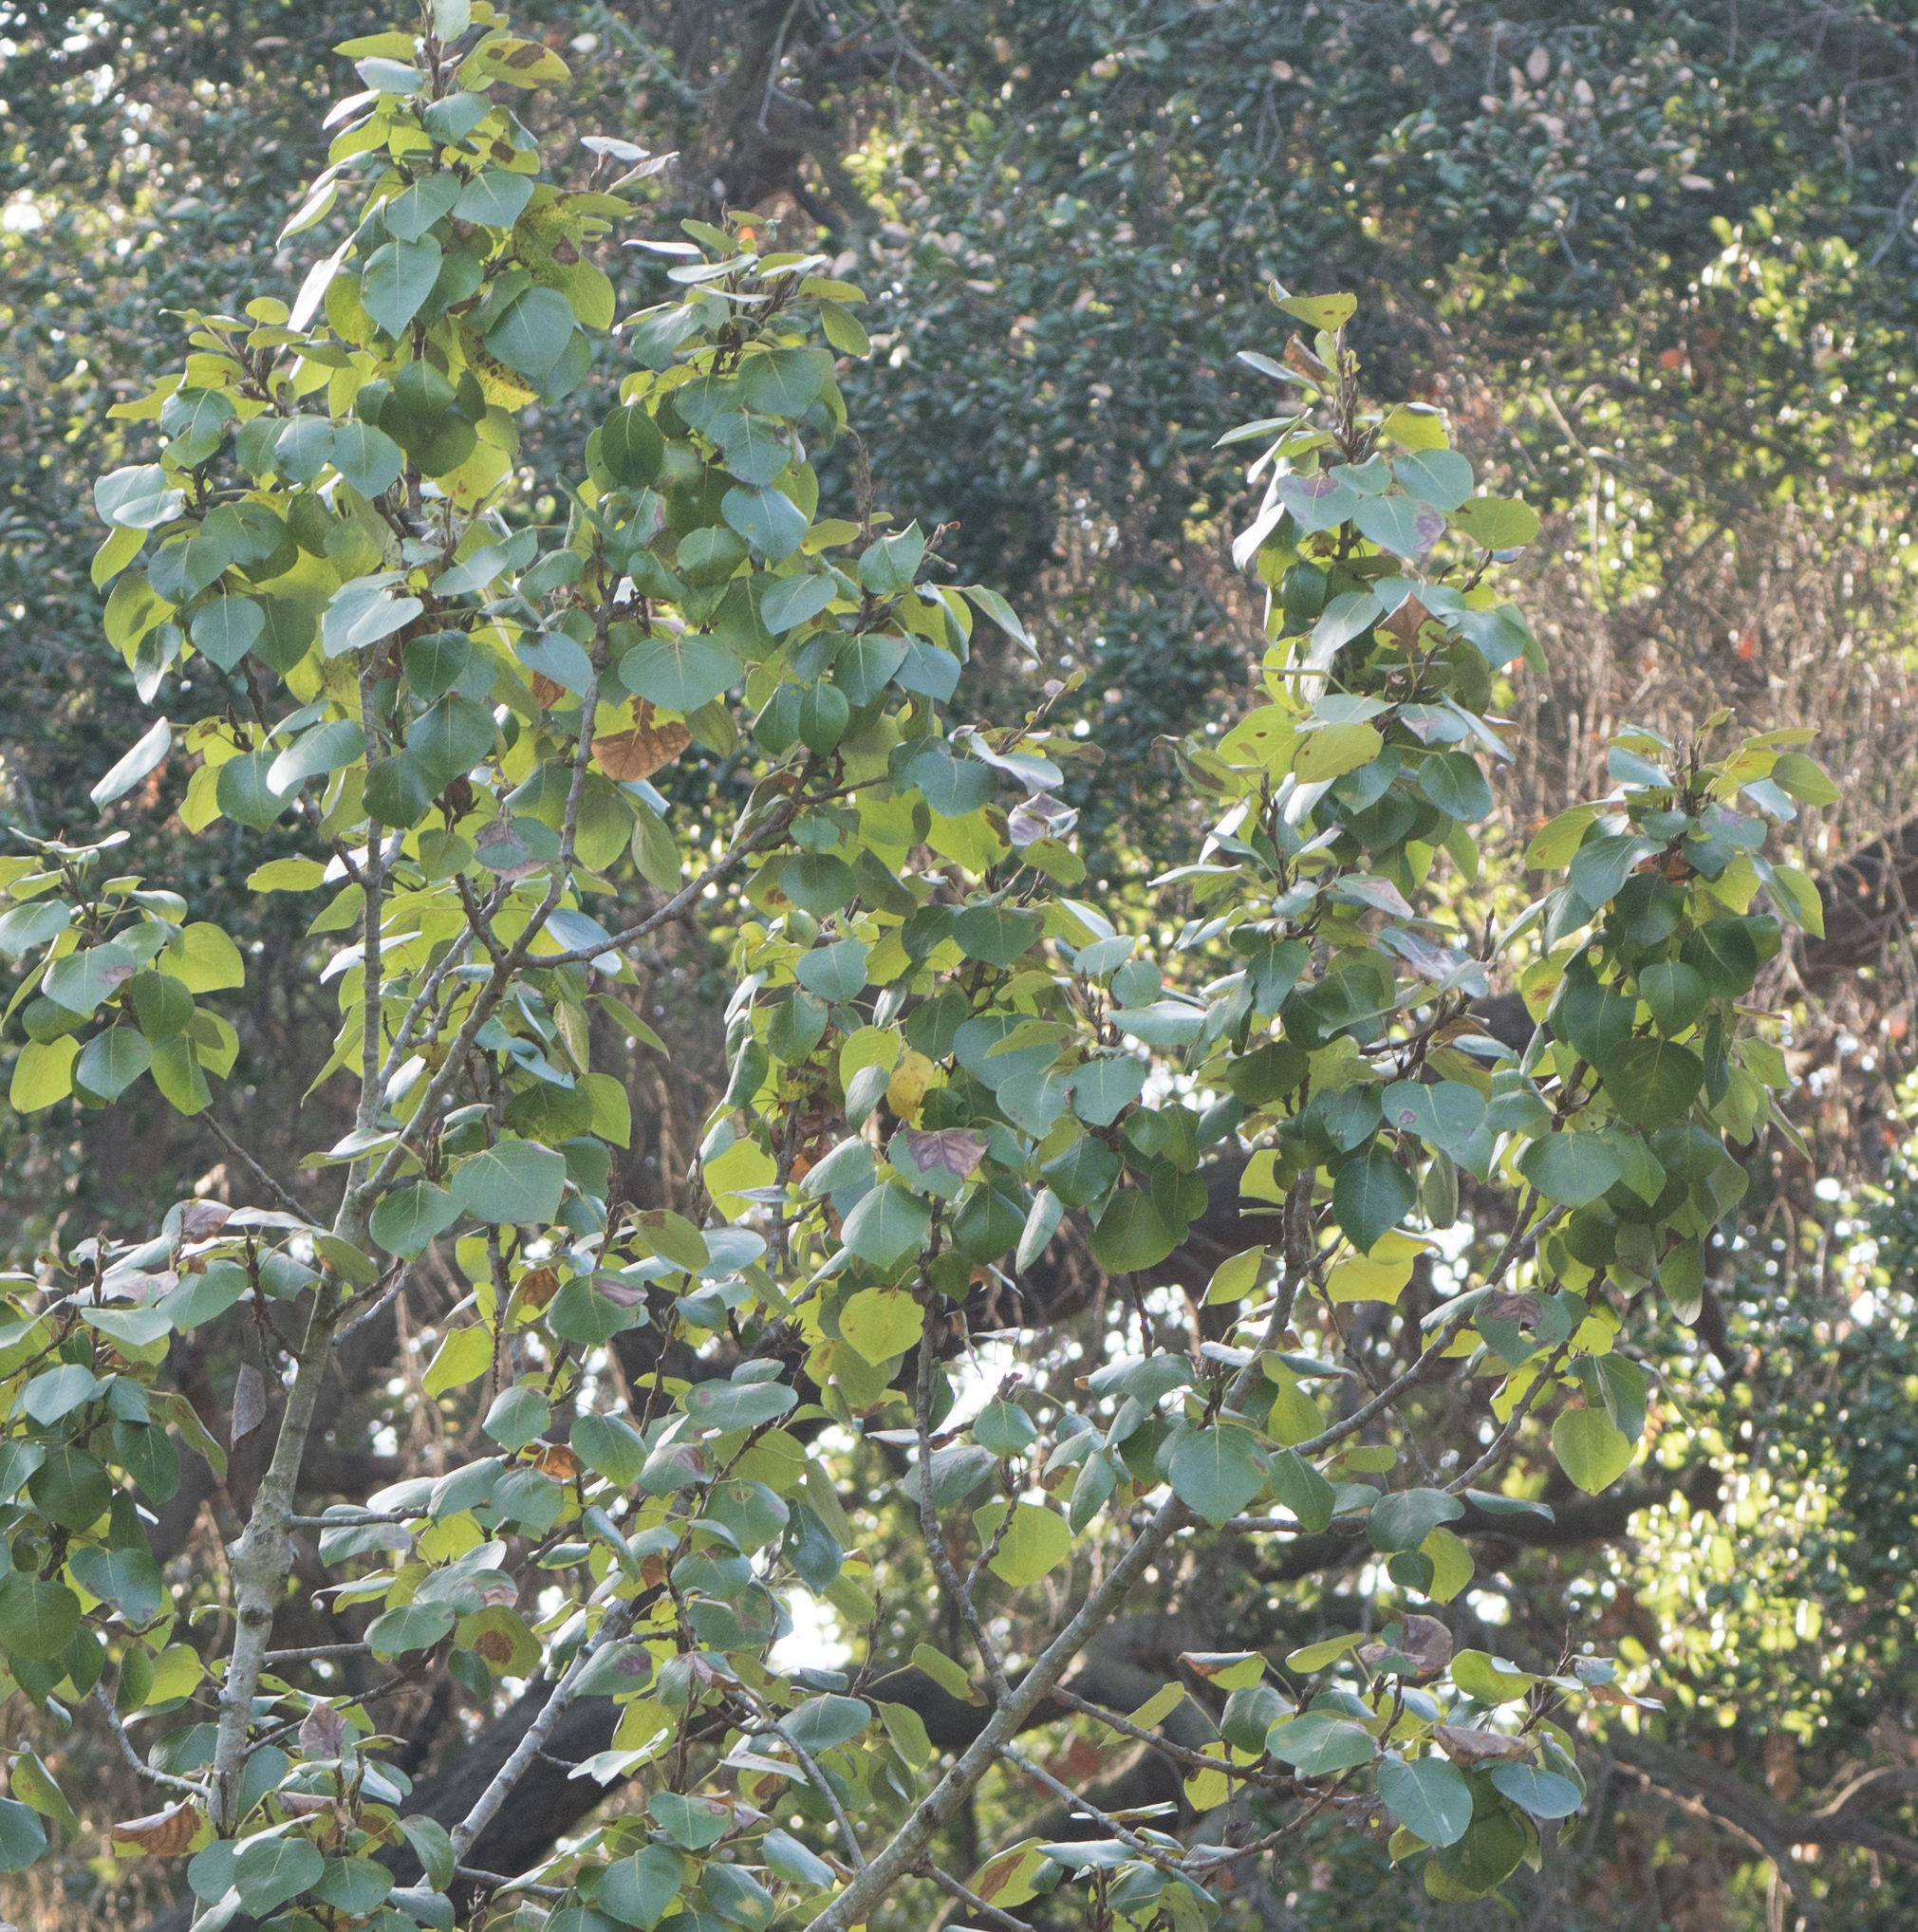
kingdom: Plantae
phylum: Tracheophyta
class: Magnoliopsida
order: Malpighiales
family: Salicaceae
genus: Populus
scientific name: Populus trichocarpa
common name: Black cottonwood
